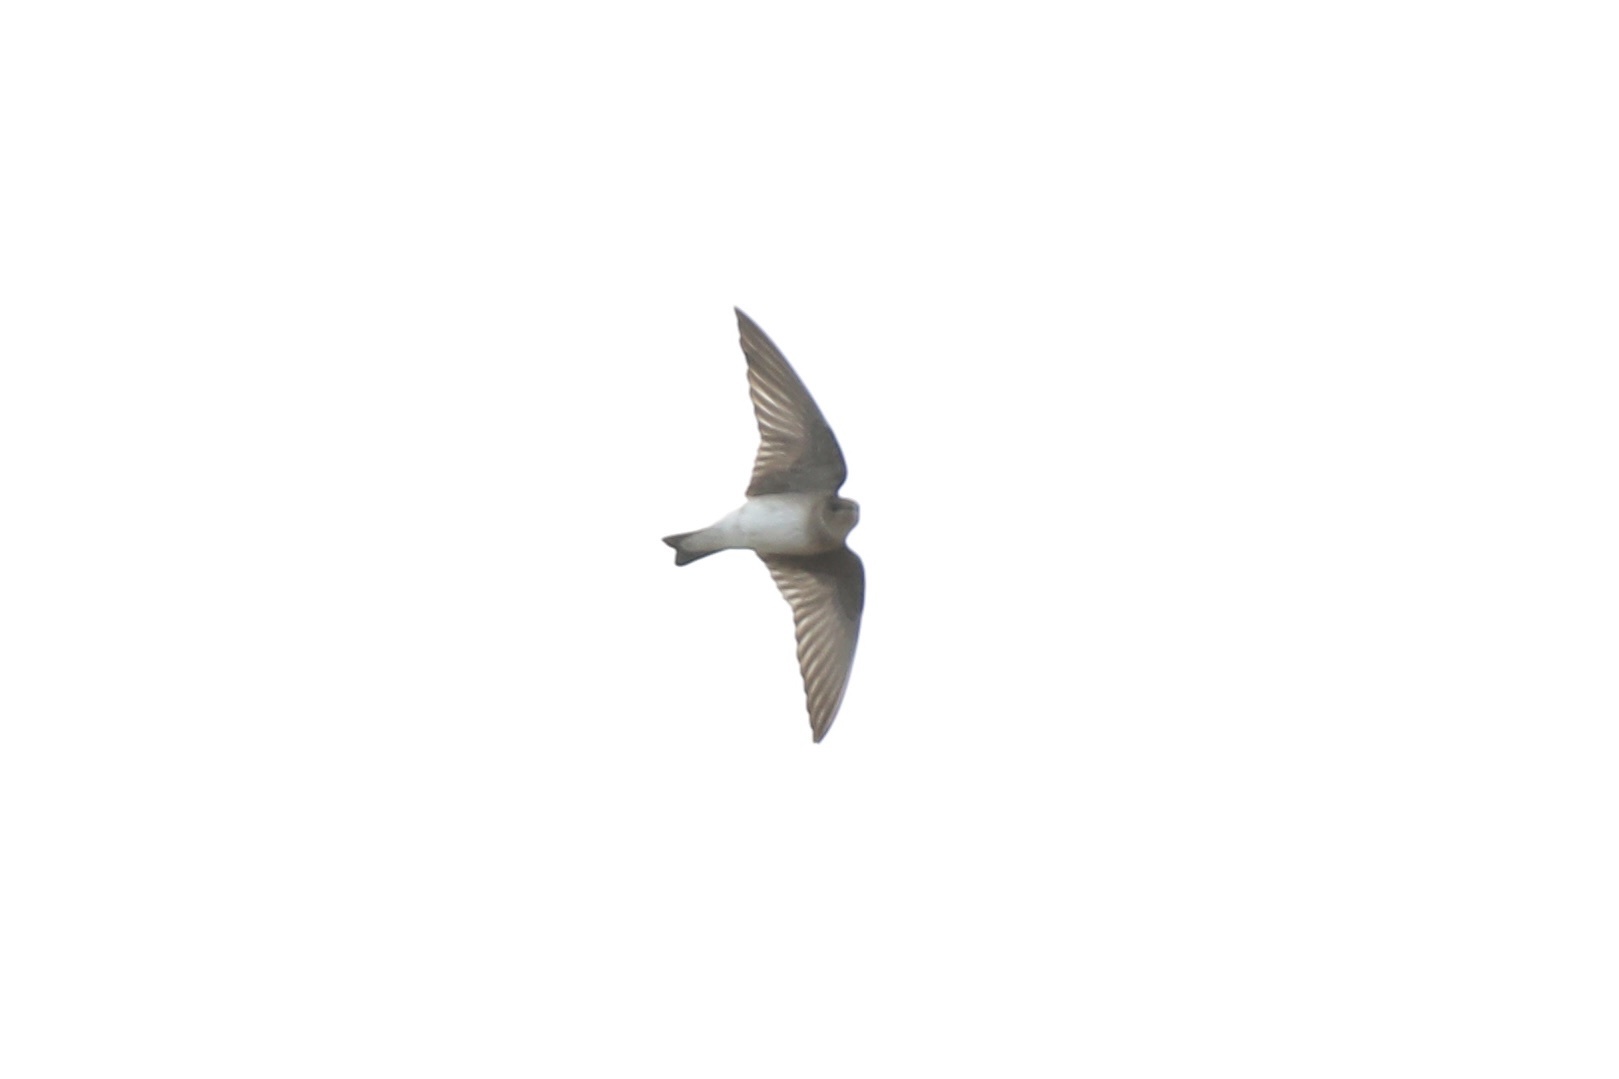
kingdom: Animalia
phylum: Chordata
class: Aves
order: Passeriformes
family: Hirundinidae
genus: Stelgidopteryx
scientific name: Stelgidopteryx serripennis
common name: Northern rough-winged swallow
